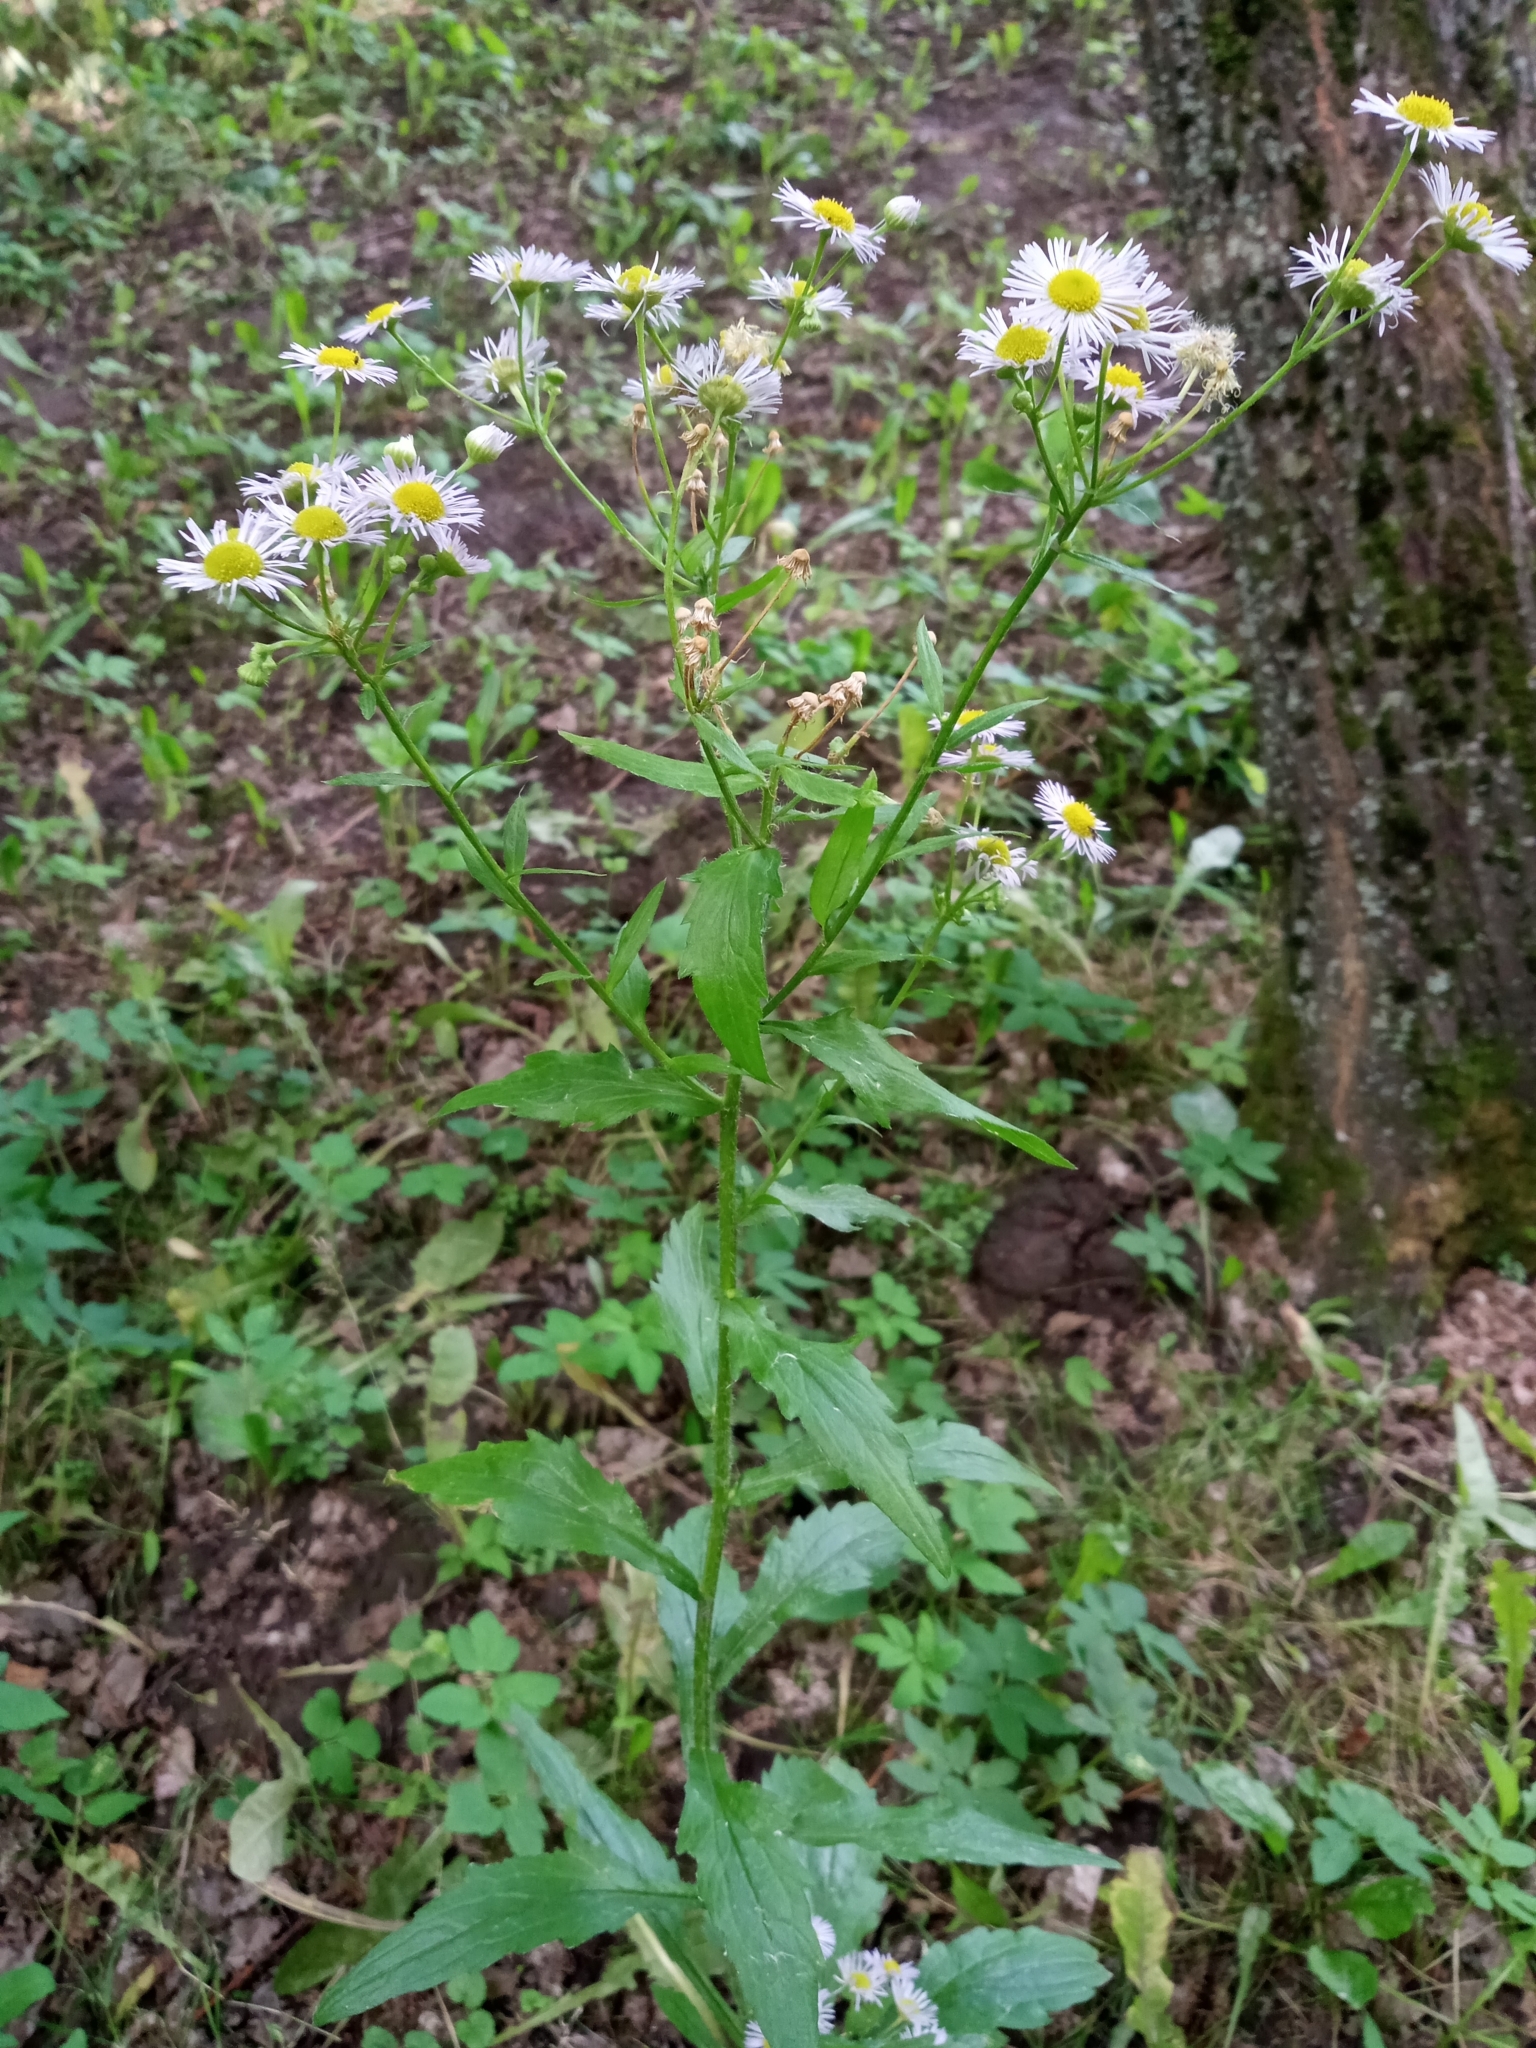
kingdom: Plantae
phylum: Tracheophyta
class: Magnoliopsida
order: Asterales
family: Asteraceae
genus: Erigeron
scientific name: Erigeron annuus
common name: Tall fleabane
